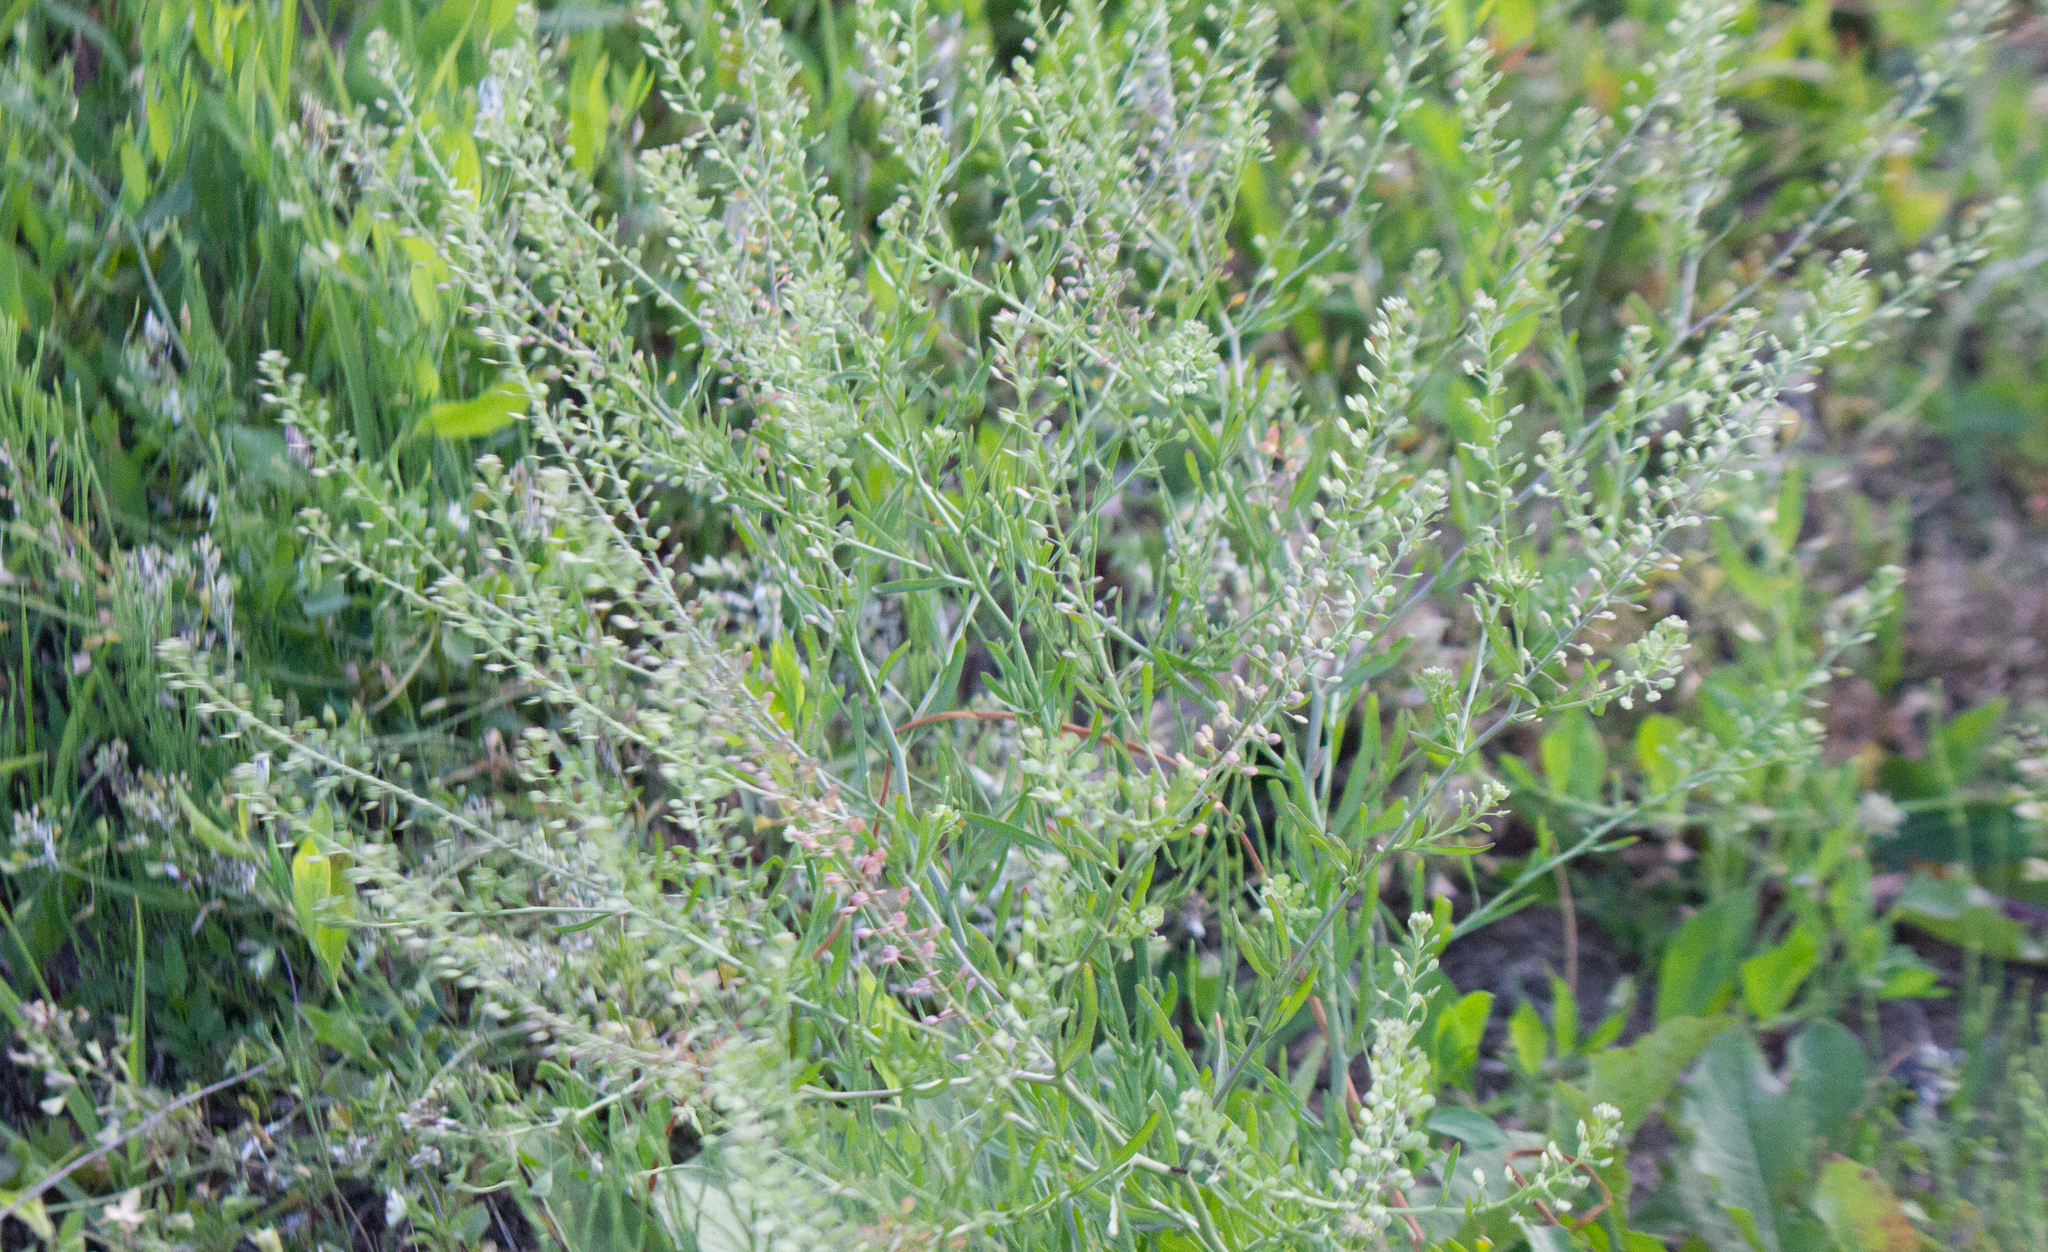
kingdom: Plantae
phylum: Tracheophyta
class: Magnoliopsida
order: Brassicales
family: Brassicaceae
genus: Lepidium
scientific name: Lepidium ruderale
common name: Narrow-leaved pepperwort
